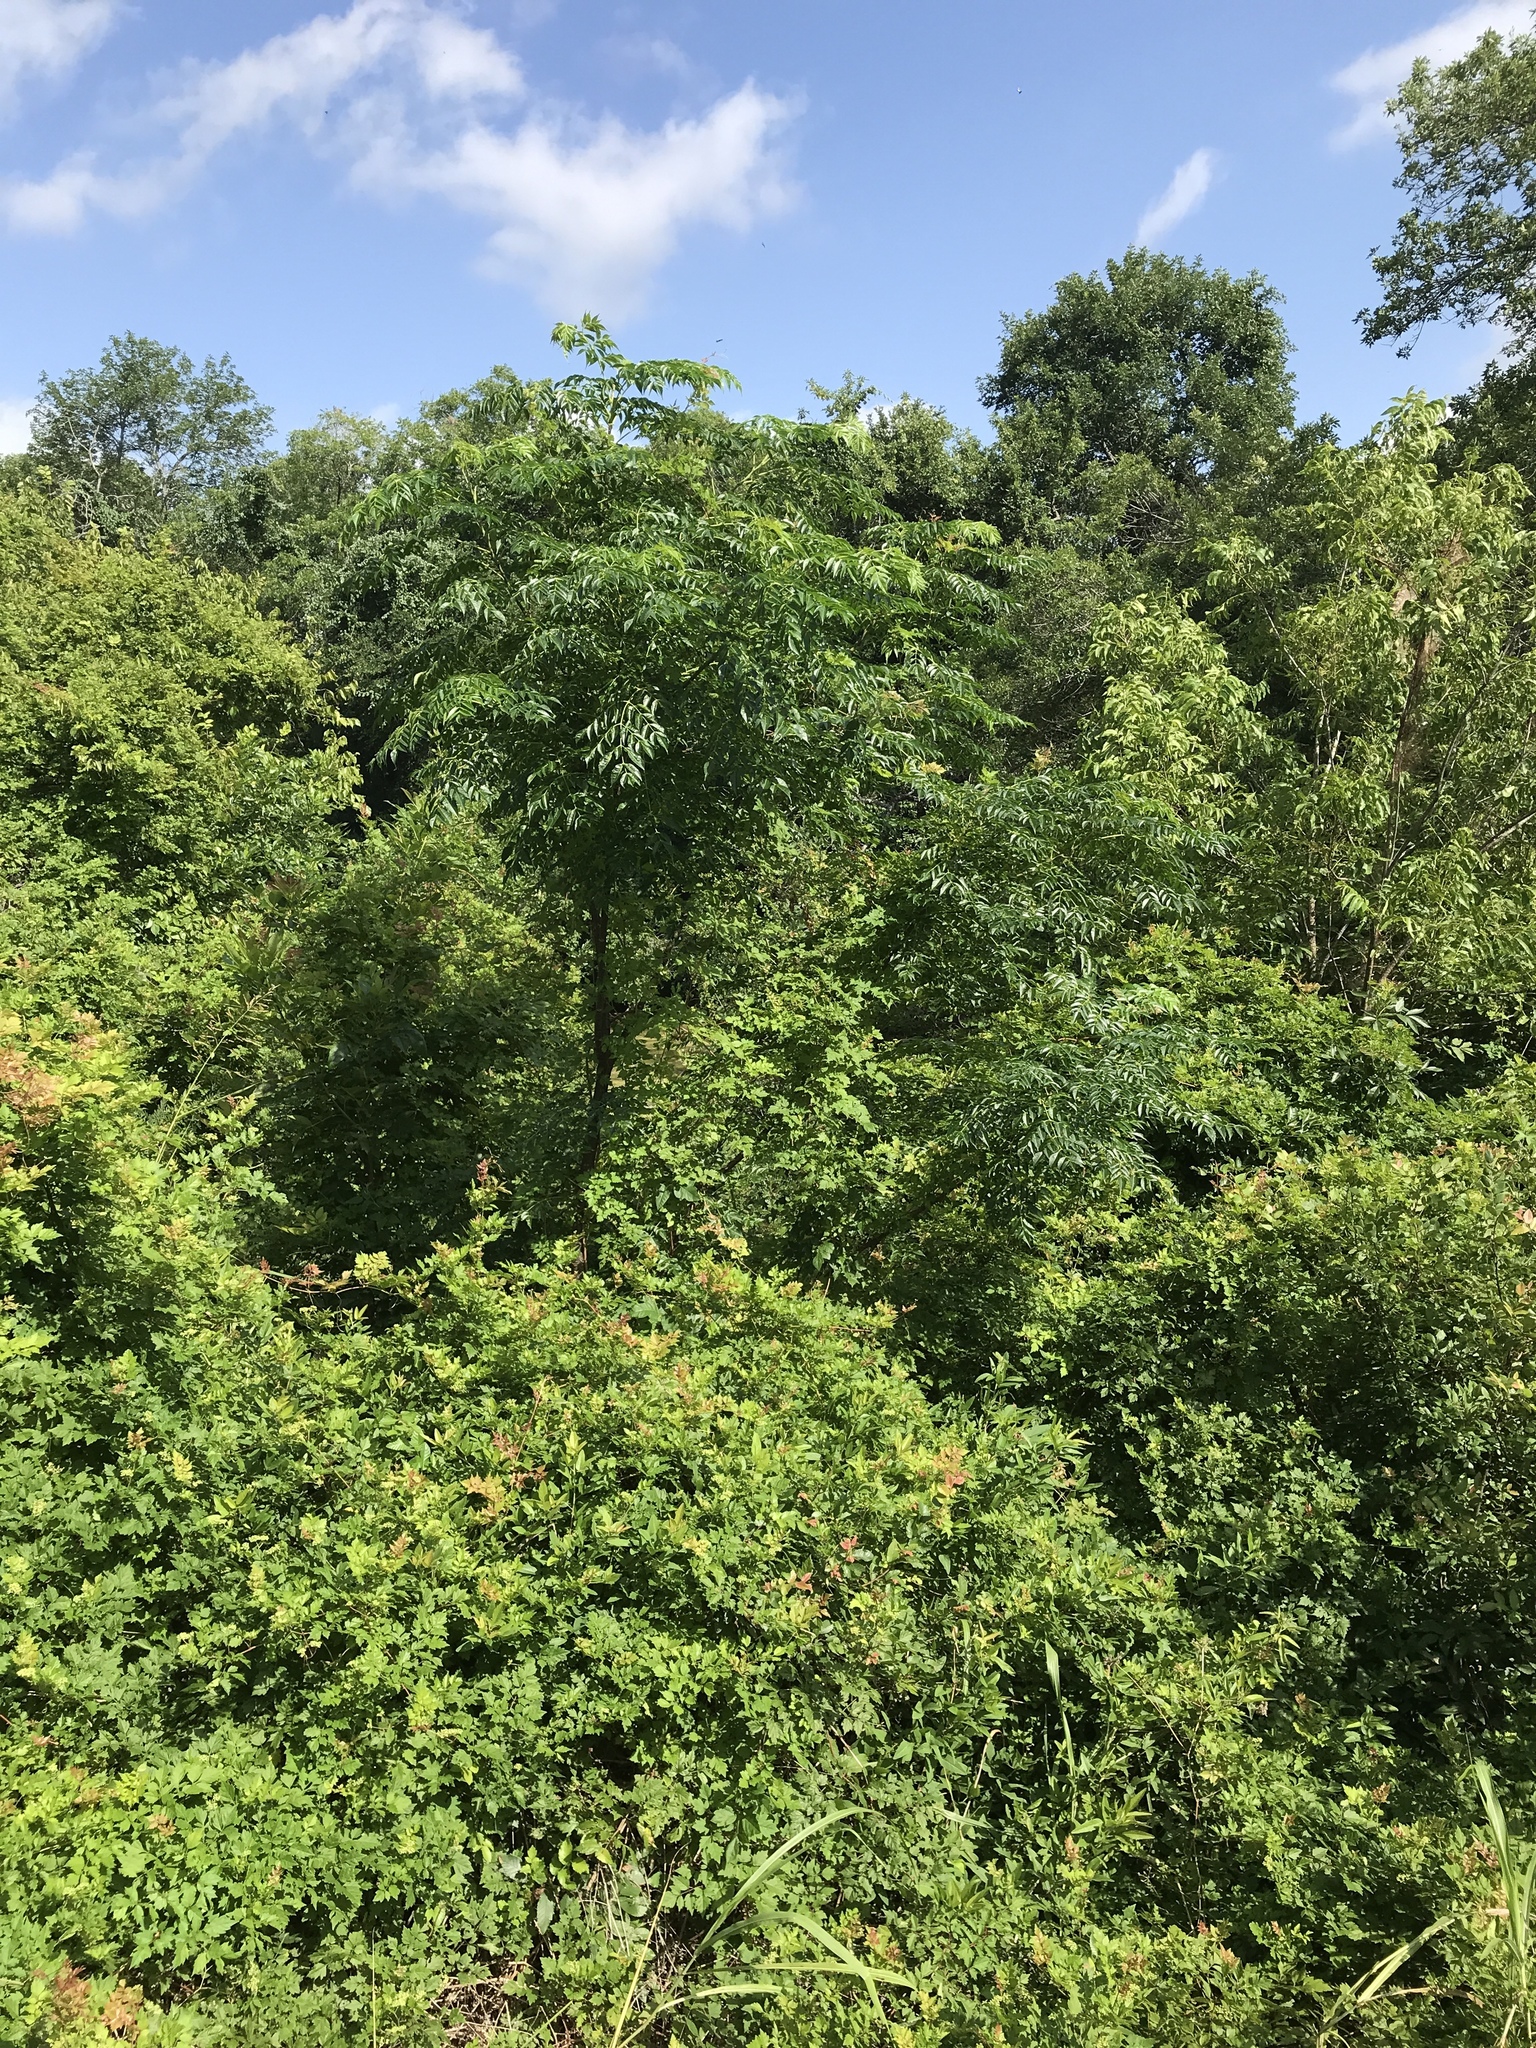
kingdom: Plantae
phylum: Tracheophyta
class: Magnoliopsida
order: Sapindales
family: Meliaceae
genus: Melia
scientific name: Melia azedarach
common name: Chinaberrytree
